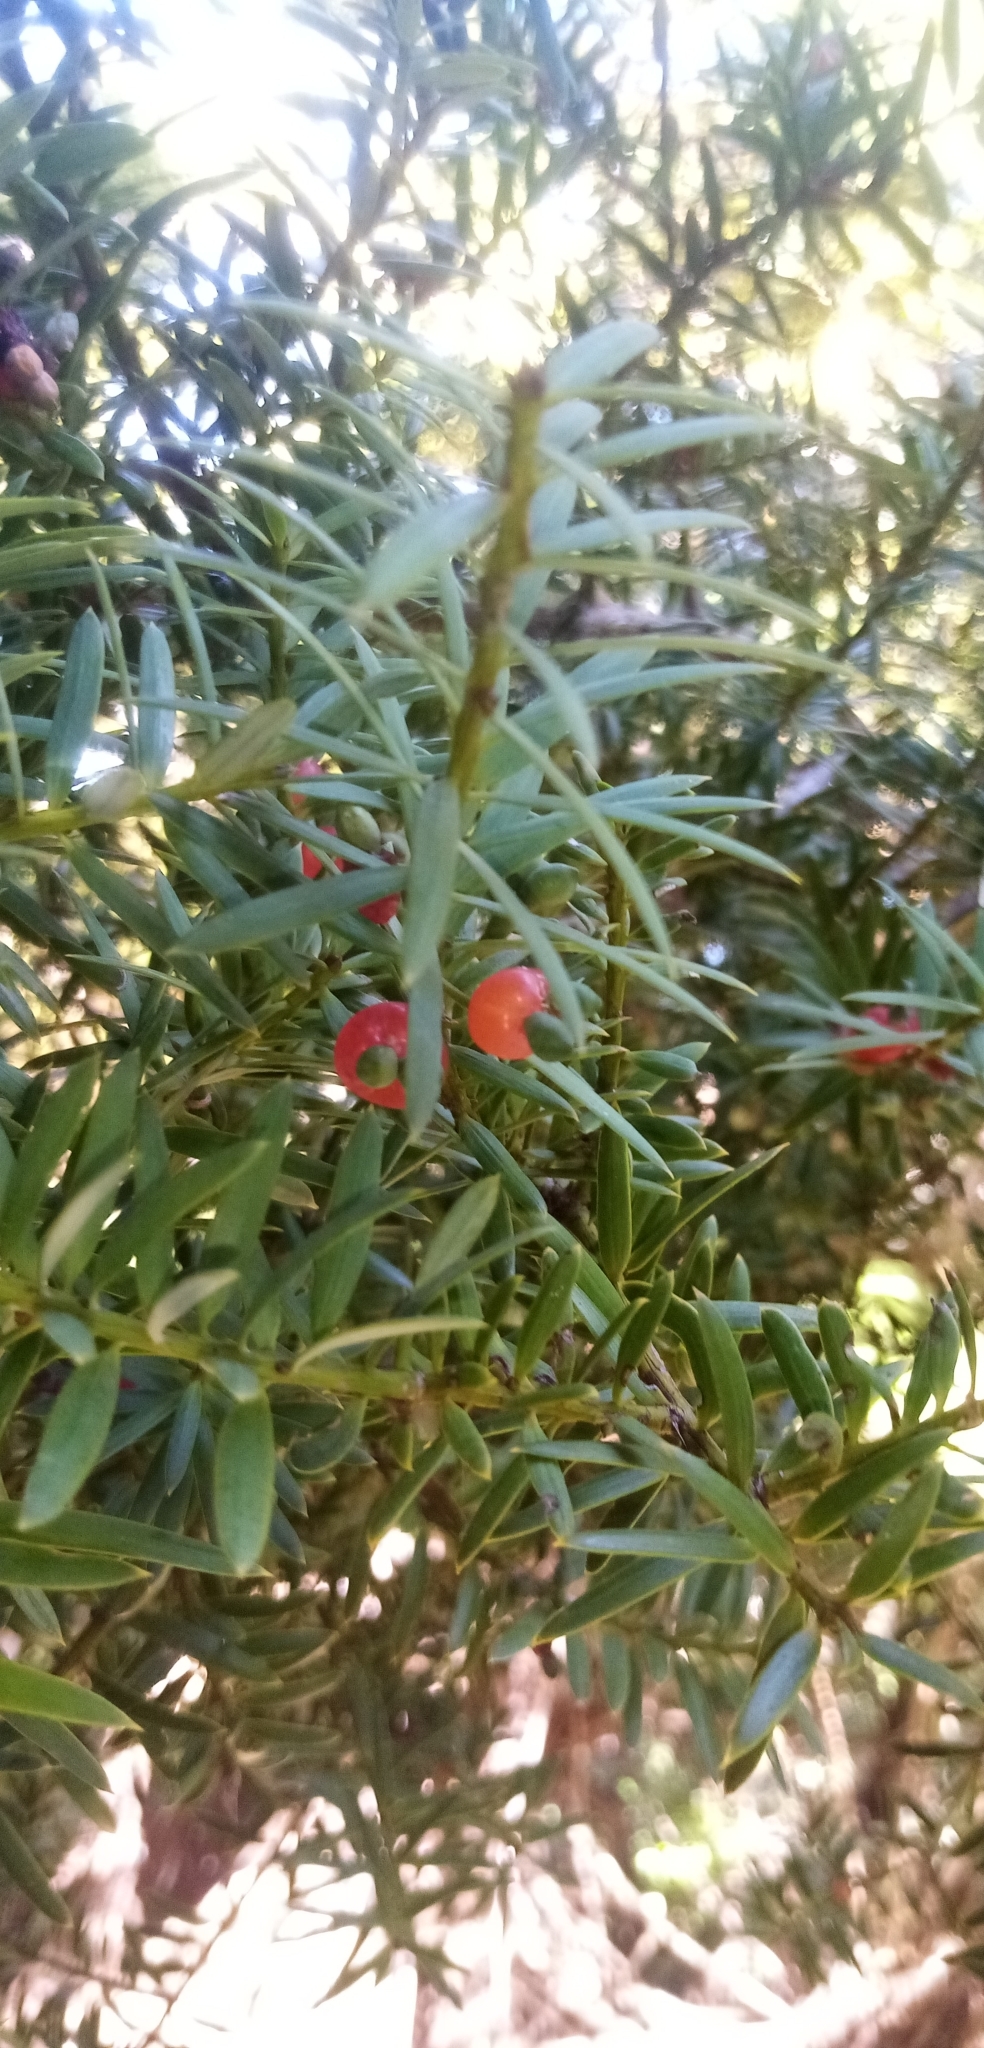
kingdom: Plantae
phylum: Tracheophyta
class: Pinopsida
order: Pinales
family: Podocarpaceae
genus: Podocarpus
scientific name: Podocarpus totara
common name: Totara
